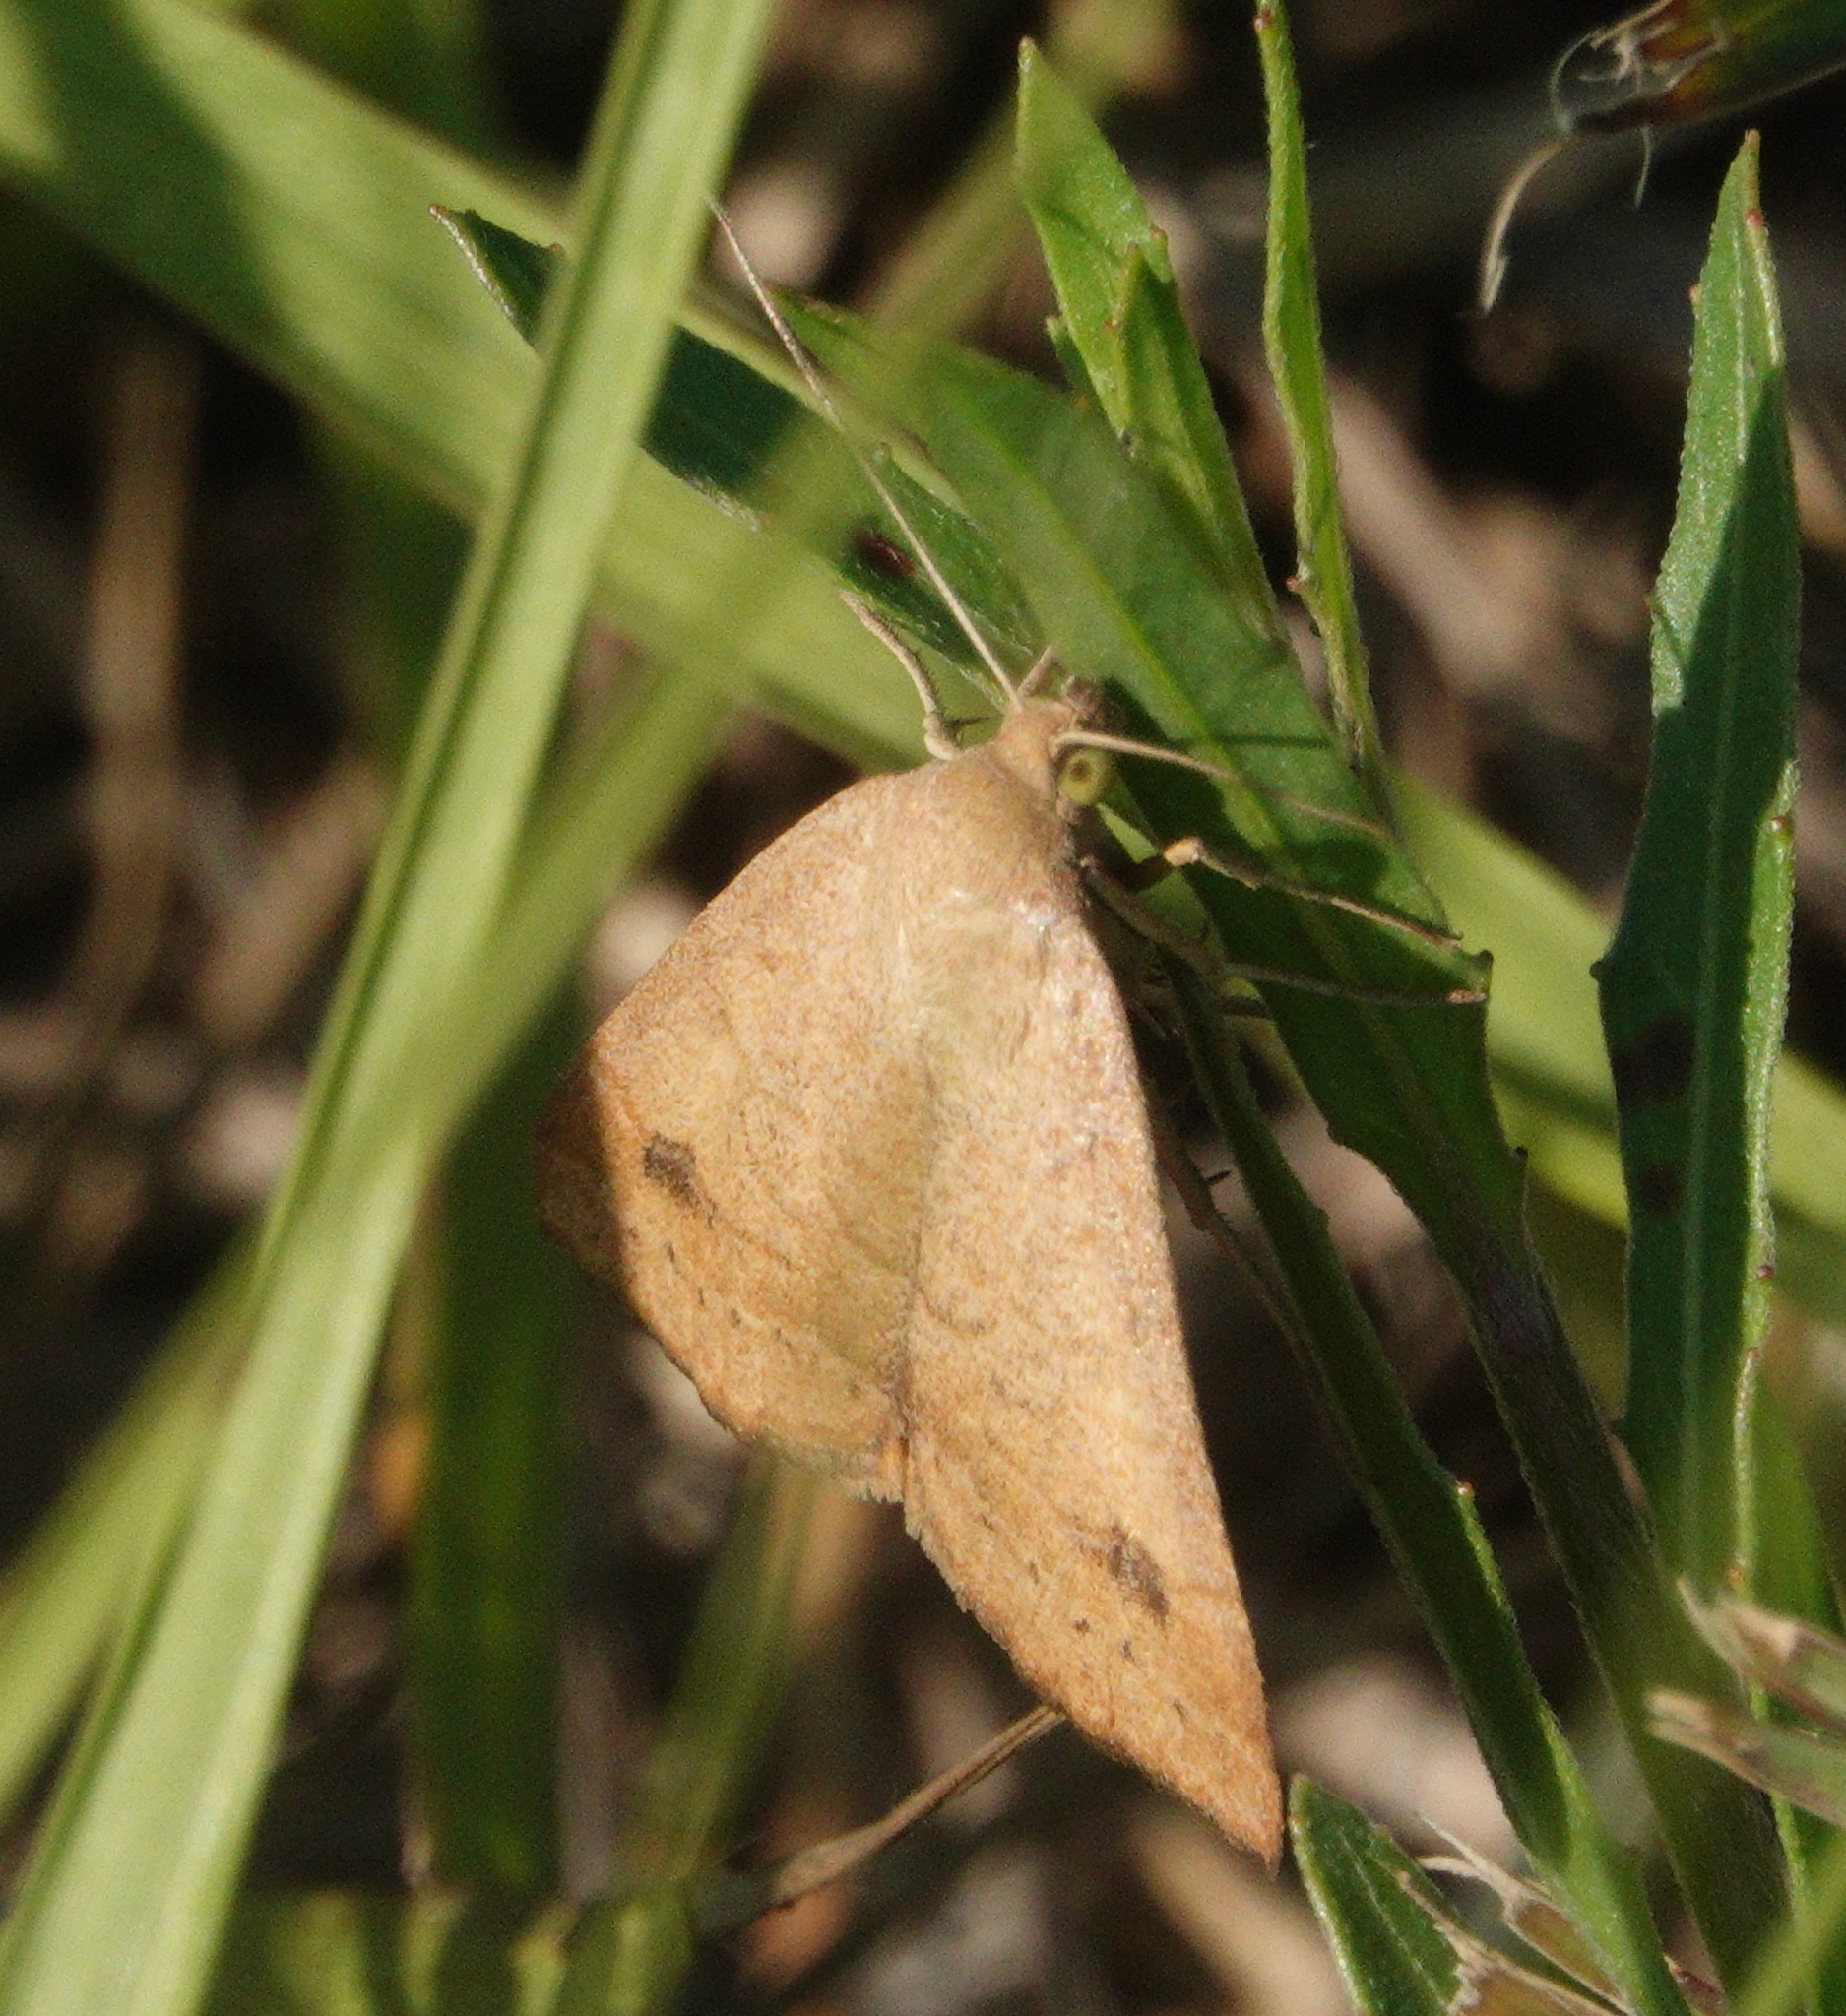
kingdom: Animalia
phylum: Arthropoda
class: Insecta
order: Lepidoptera
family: Erebidae
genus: Caenurgia
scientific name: Caenurgia chloropha
